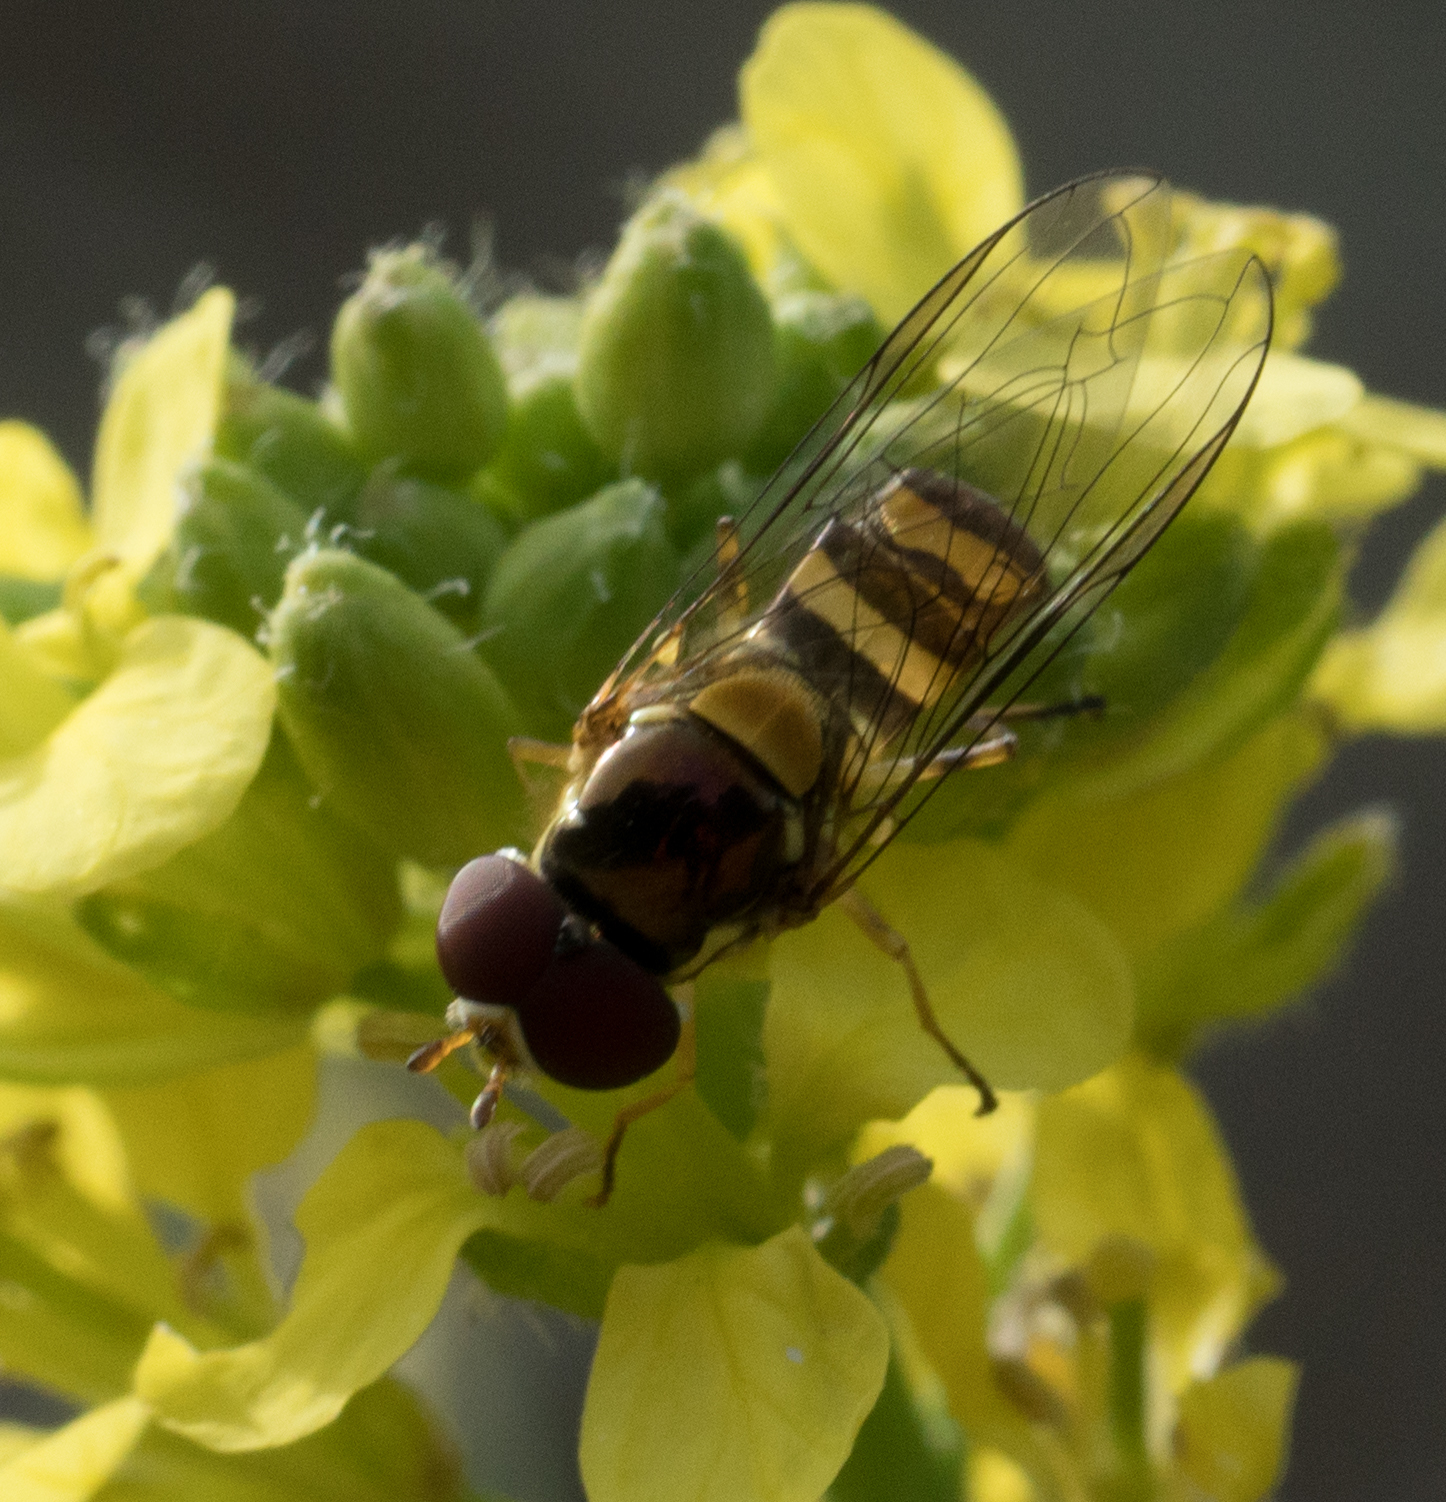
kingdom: Animalia
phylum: Arthropoda
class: Insecta
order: Diptera
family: Syrphidae
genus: Allograpta
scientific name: Allograpta obliqua
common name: Common oblique syrphid
